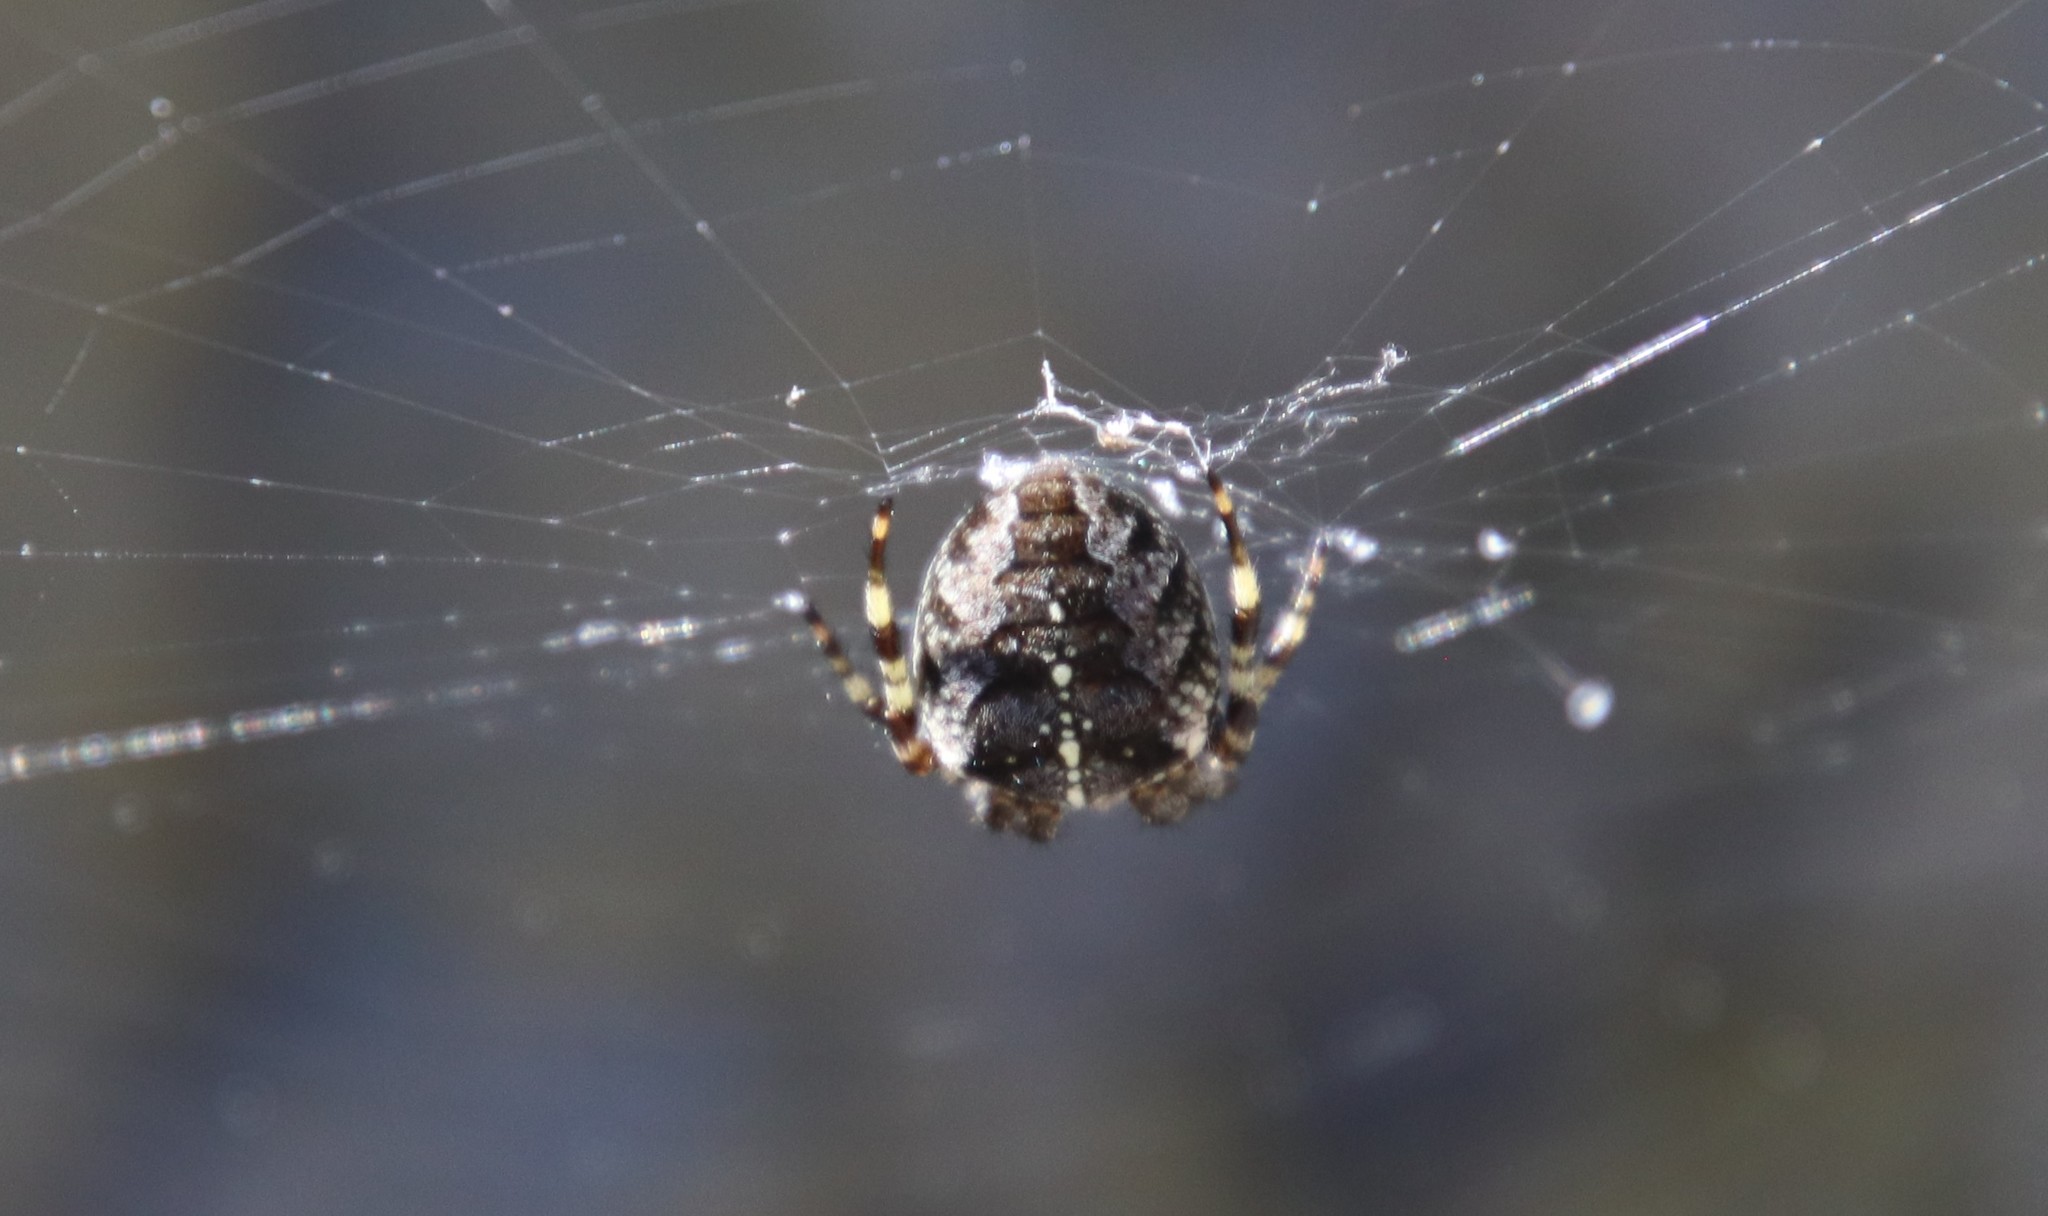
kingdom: Animalia
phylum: Arthropoda
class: Arachnida
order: Araneae
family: Araneidae
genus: Araneus
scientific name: Araneus diadematus
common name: Cross orbweaver
